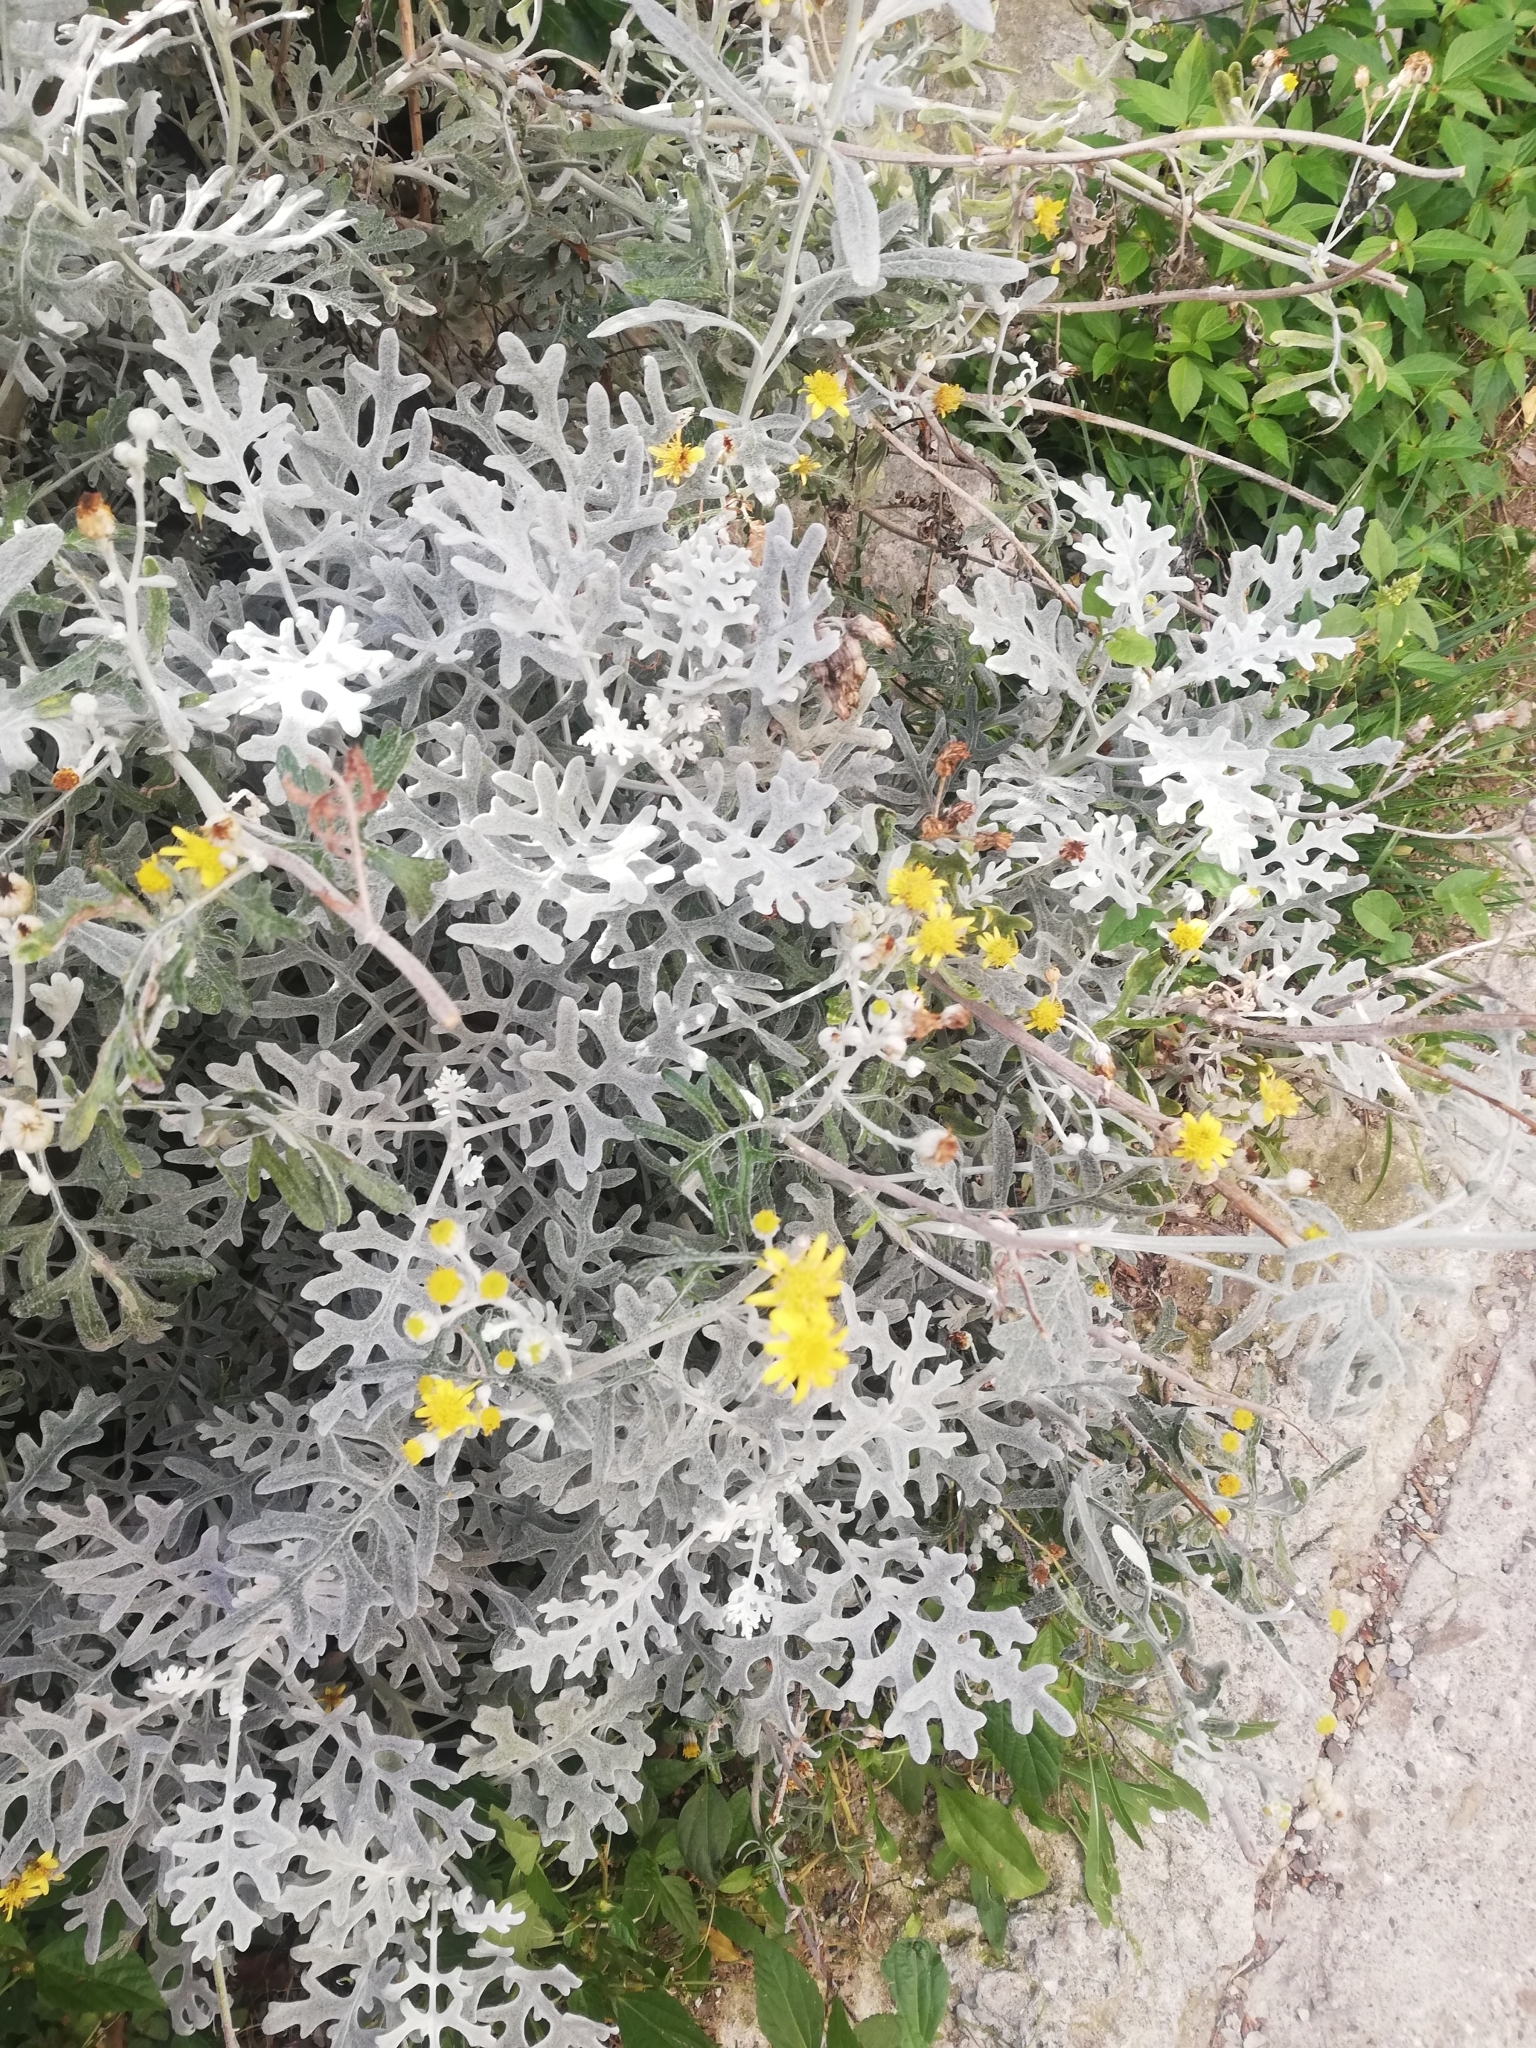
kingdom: Plantae
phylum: Tracheophyta
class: Magnoliopsida
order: Asterales
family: Asteraceae
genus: Jacobaea
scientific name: Jacobaea maritima
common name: Silver ragwort
